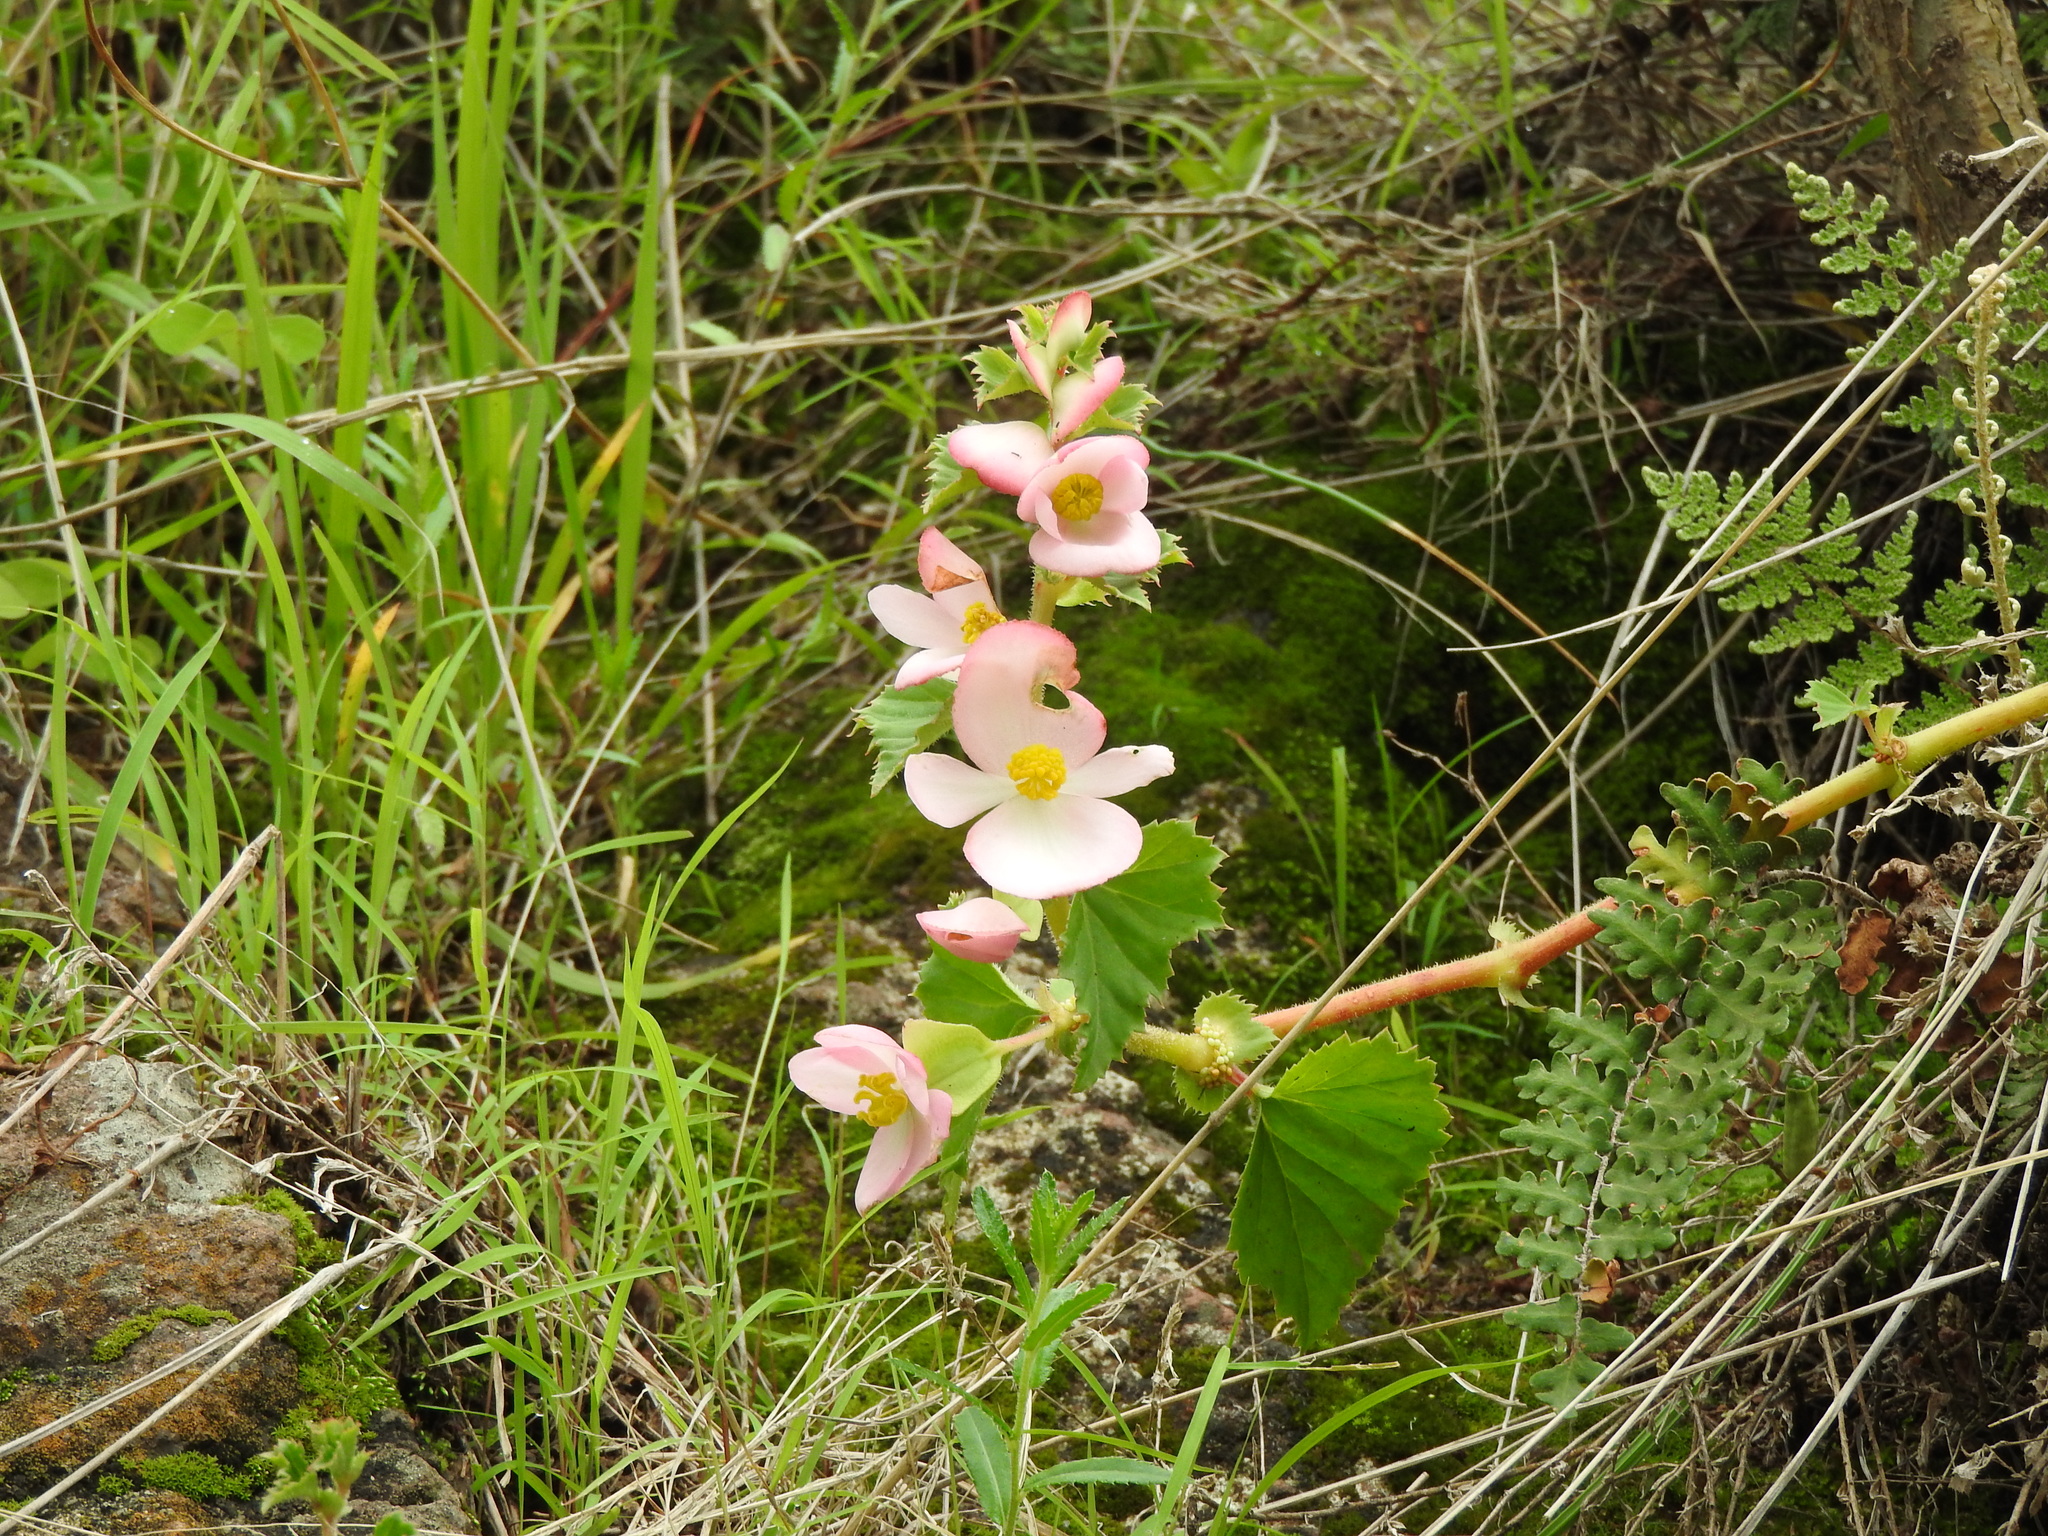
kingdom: Plantae
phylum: Tracheophyta
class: Magnoliopsida
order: Cucurbitales
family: Begoniaceae
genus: Begonia
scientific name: Begonia gracilis
